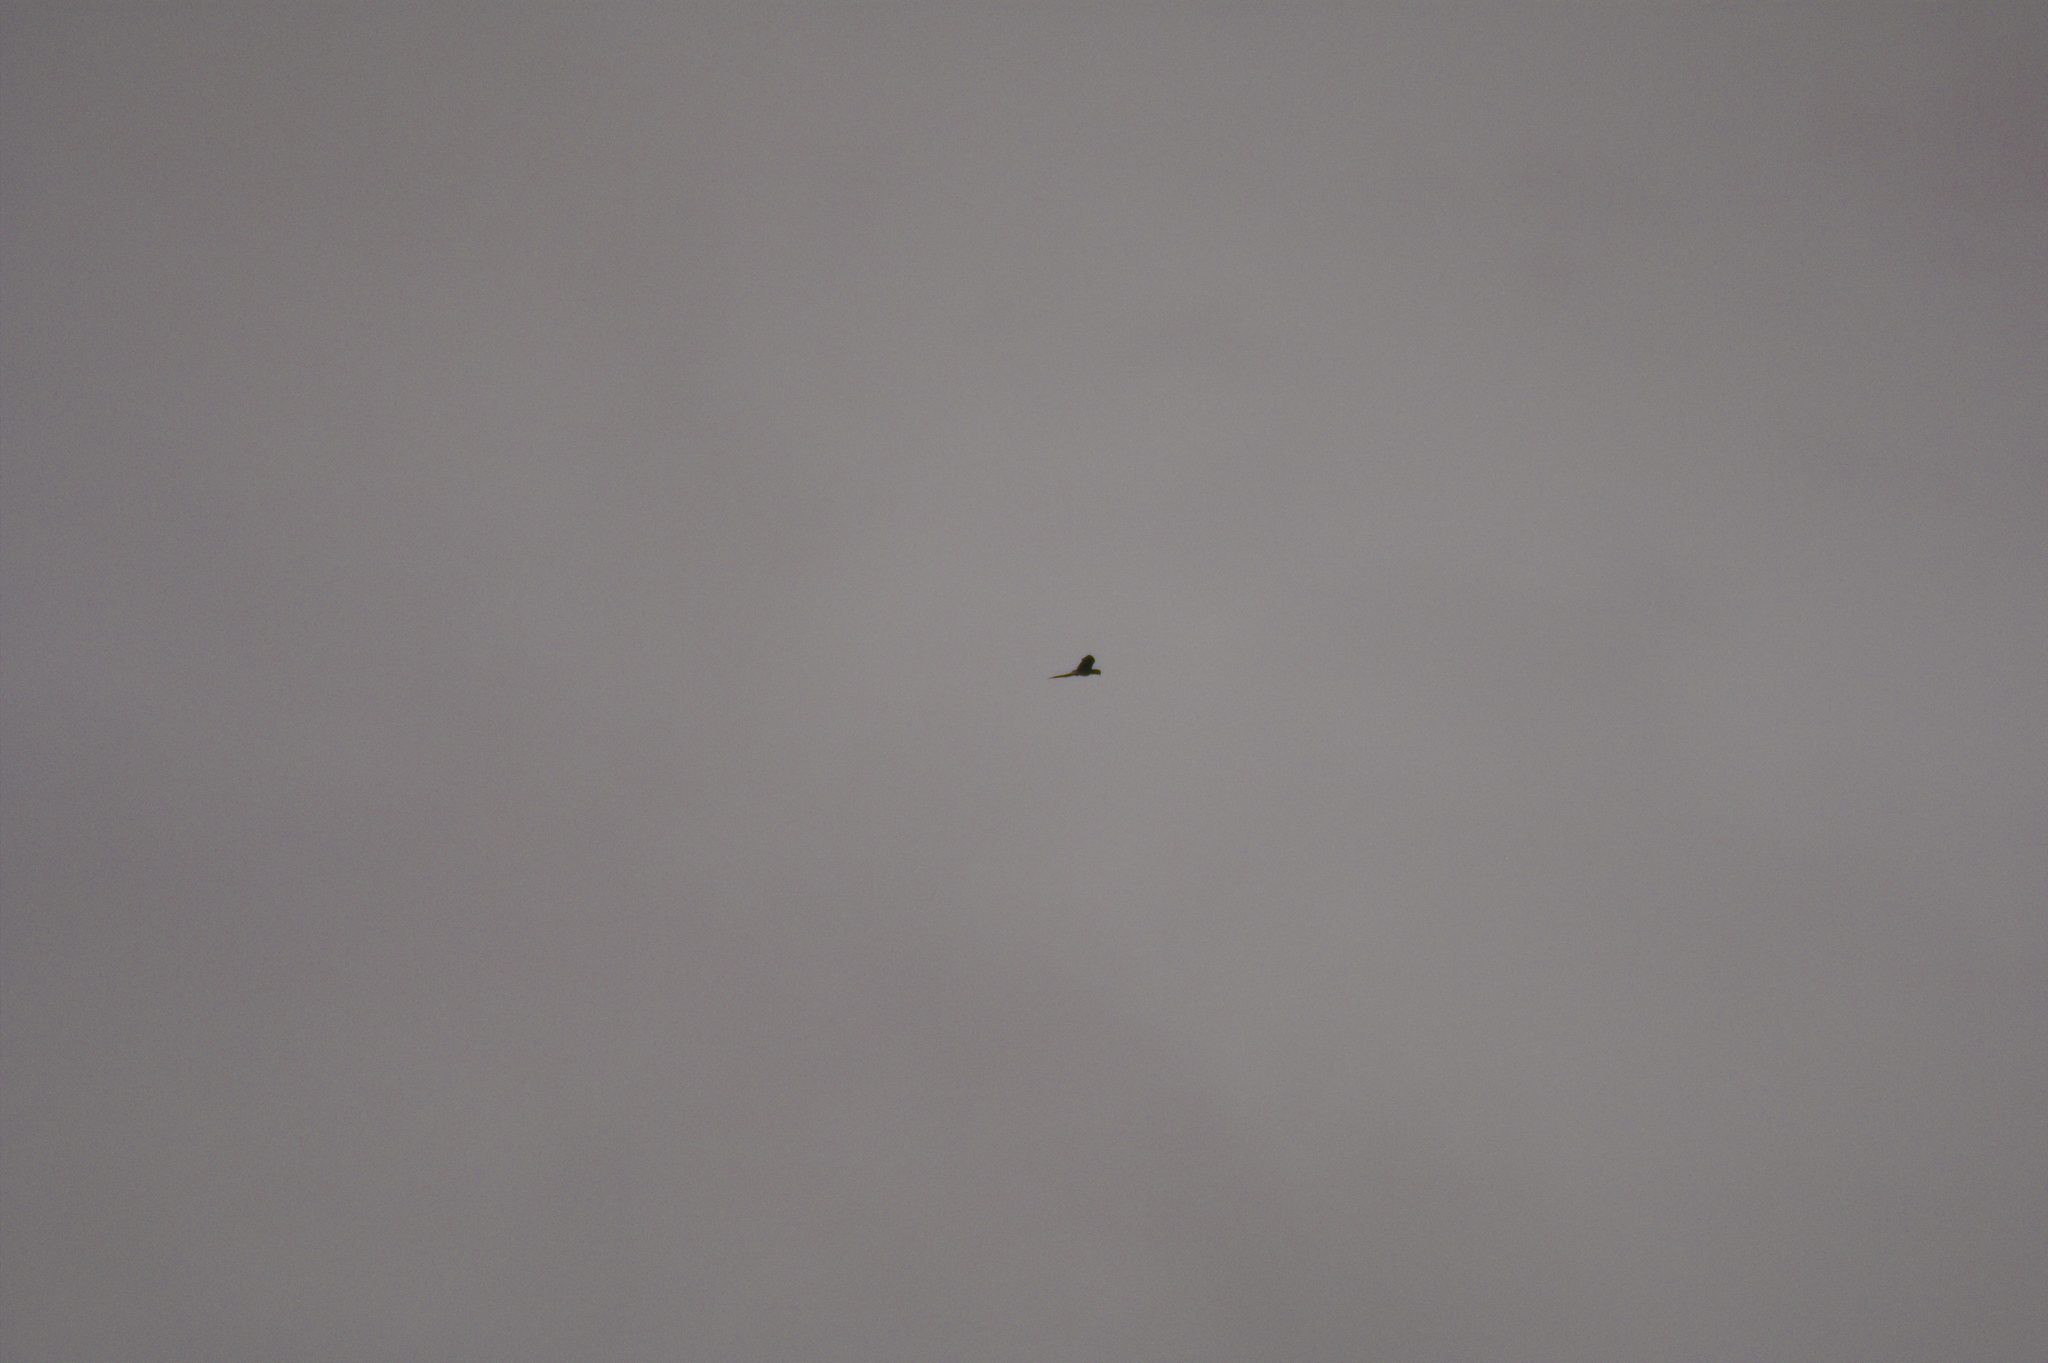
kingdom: Animalia
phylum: Chordata
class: Aves
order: Psittaciformes
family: Psittacidae
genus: Ara
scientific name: Ara ambiguus
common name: Great green macaw
